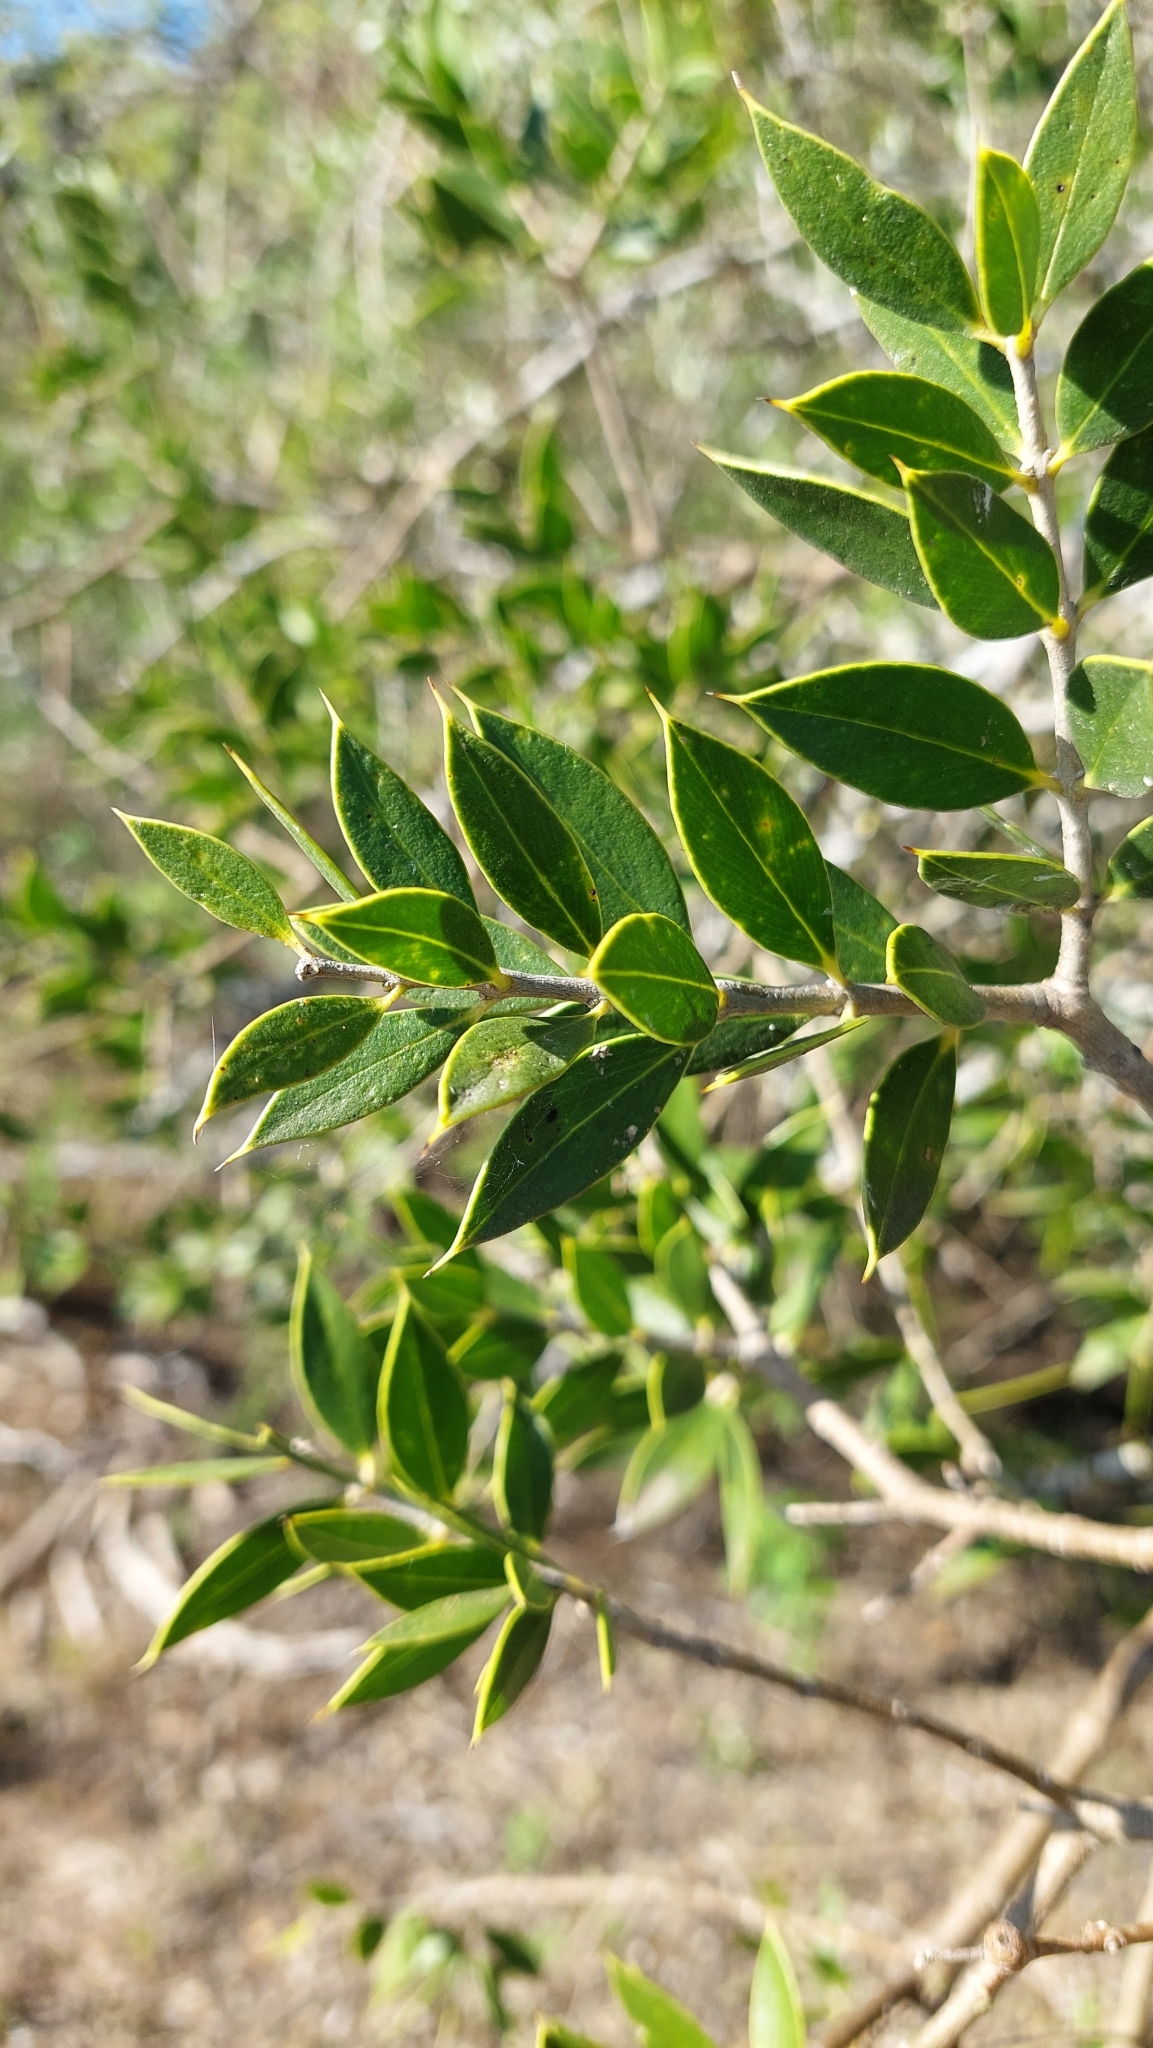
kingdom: Plantae
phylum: Tracheophyta
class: Magnoliopsida
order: Gentianales
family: Apocynaceae
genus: Aspidosperma
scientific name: Aspidosperma quebracho-blanco
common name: White quebracho
